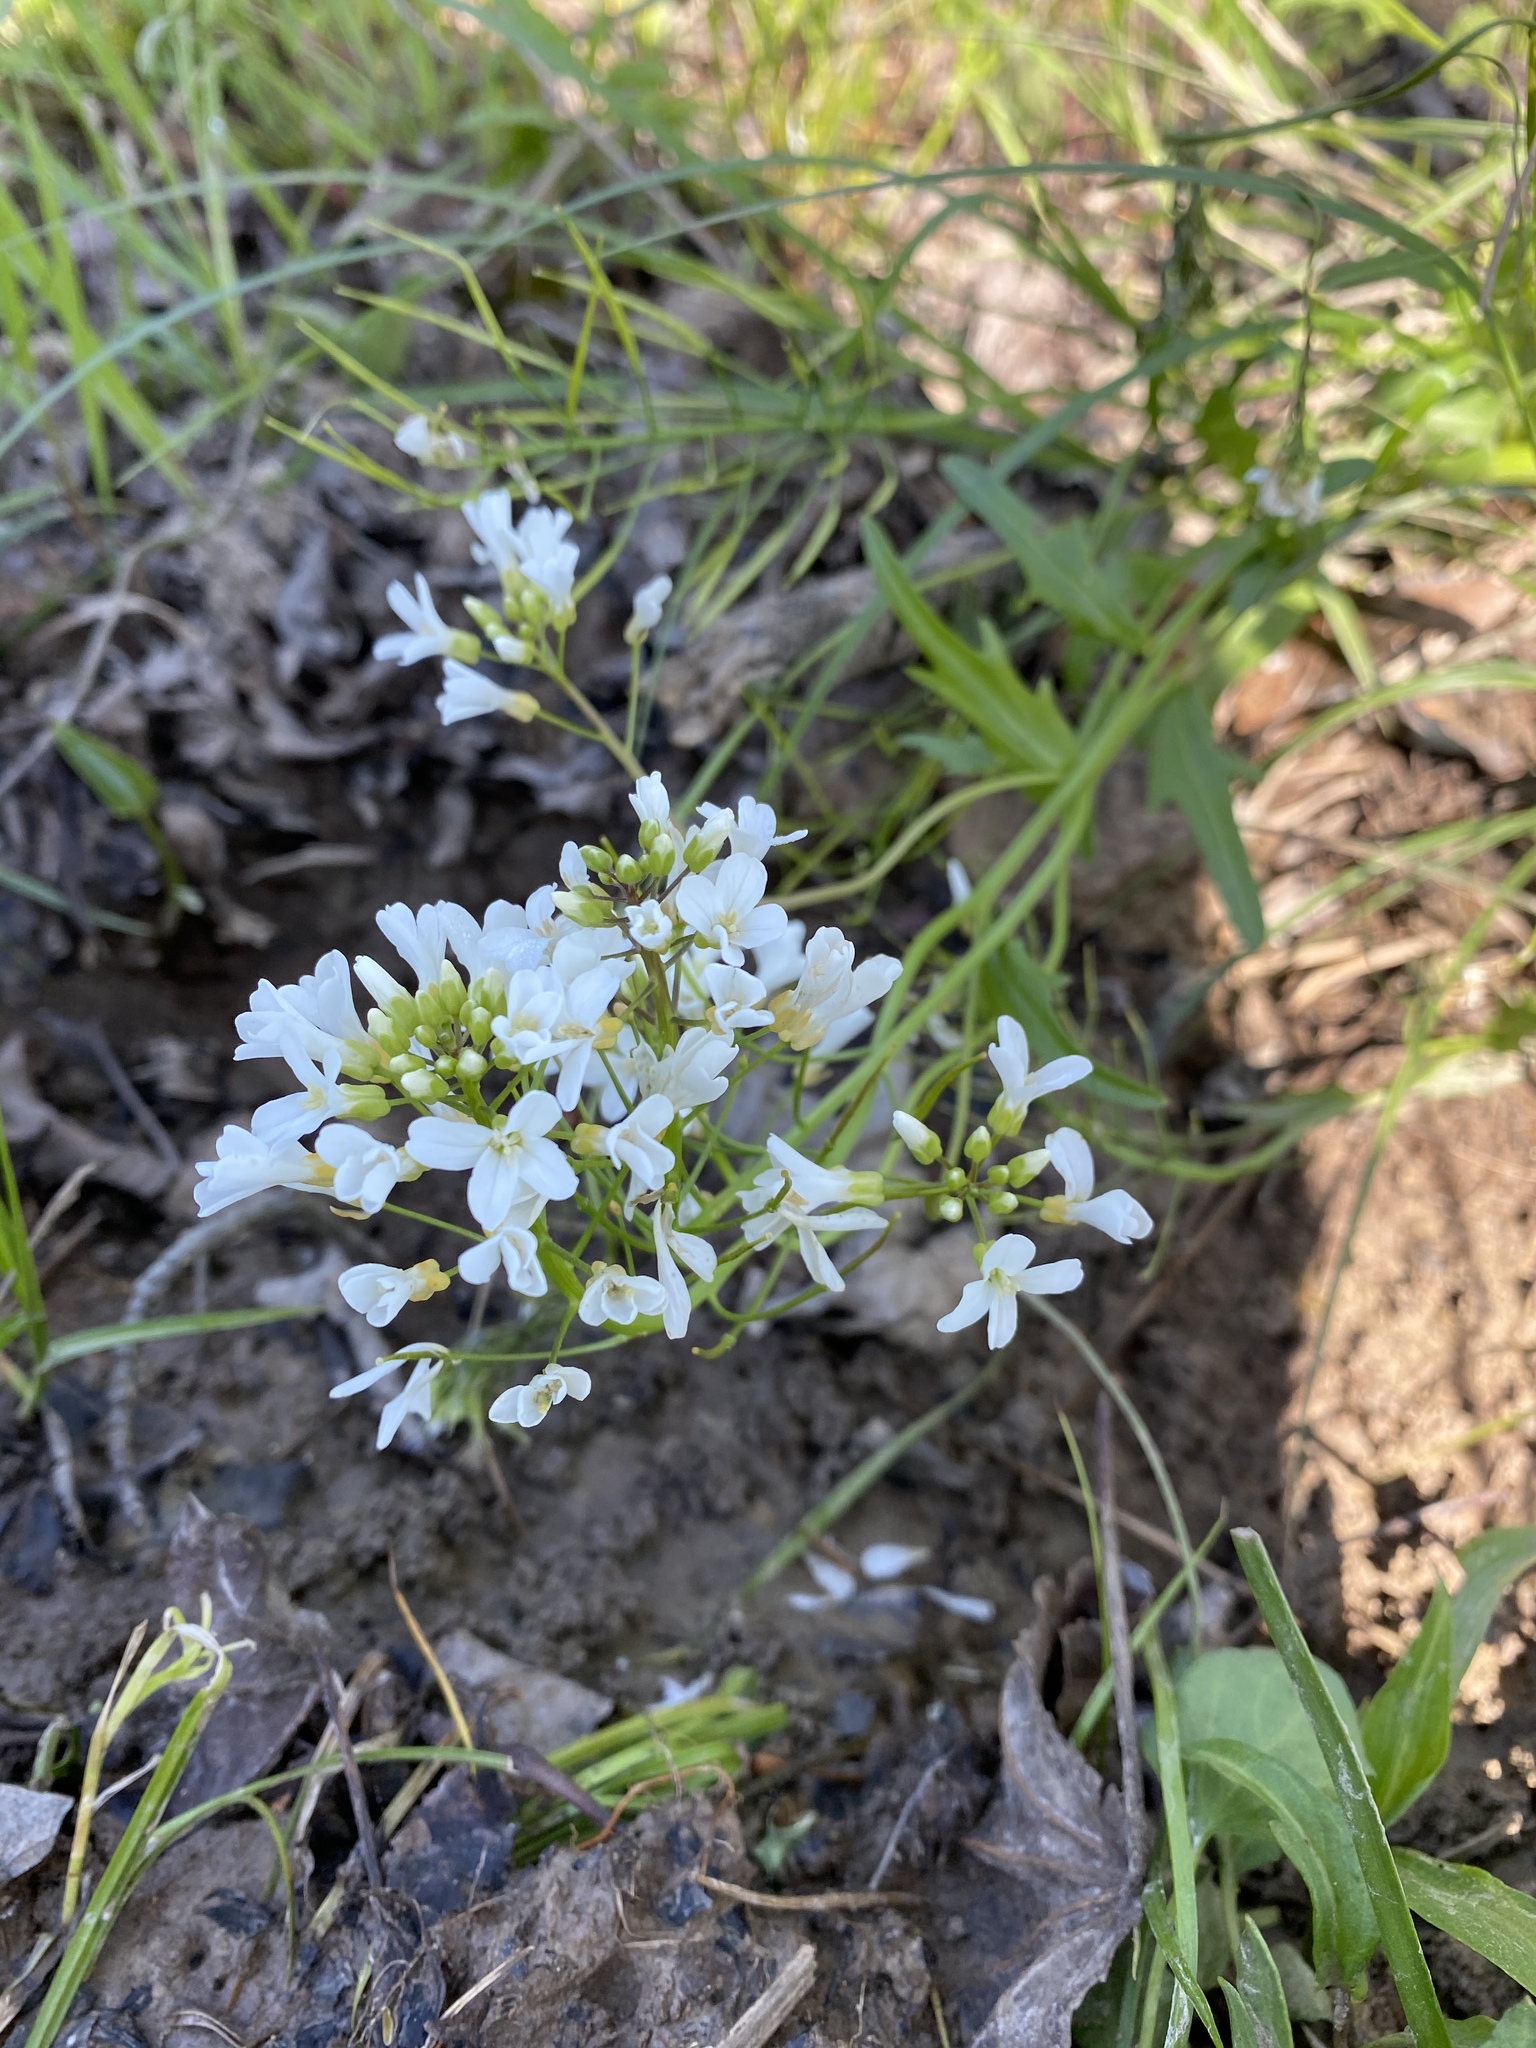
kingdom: Plantae
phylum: Tracheophyta
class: Magnoliopsida
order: Brassicales
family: Brassicaceae
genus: Cardamine
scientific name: Cardamine bulbosa
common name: Spring cress
